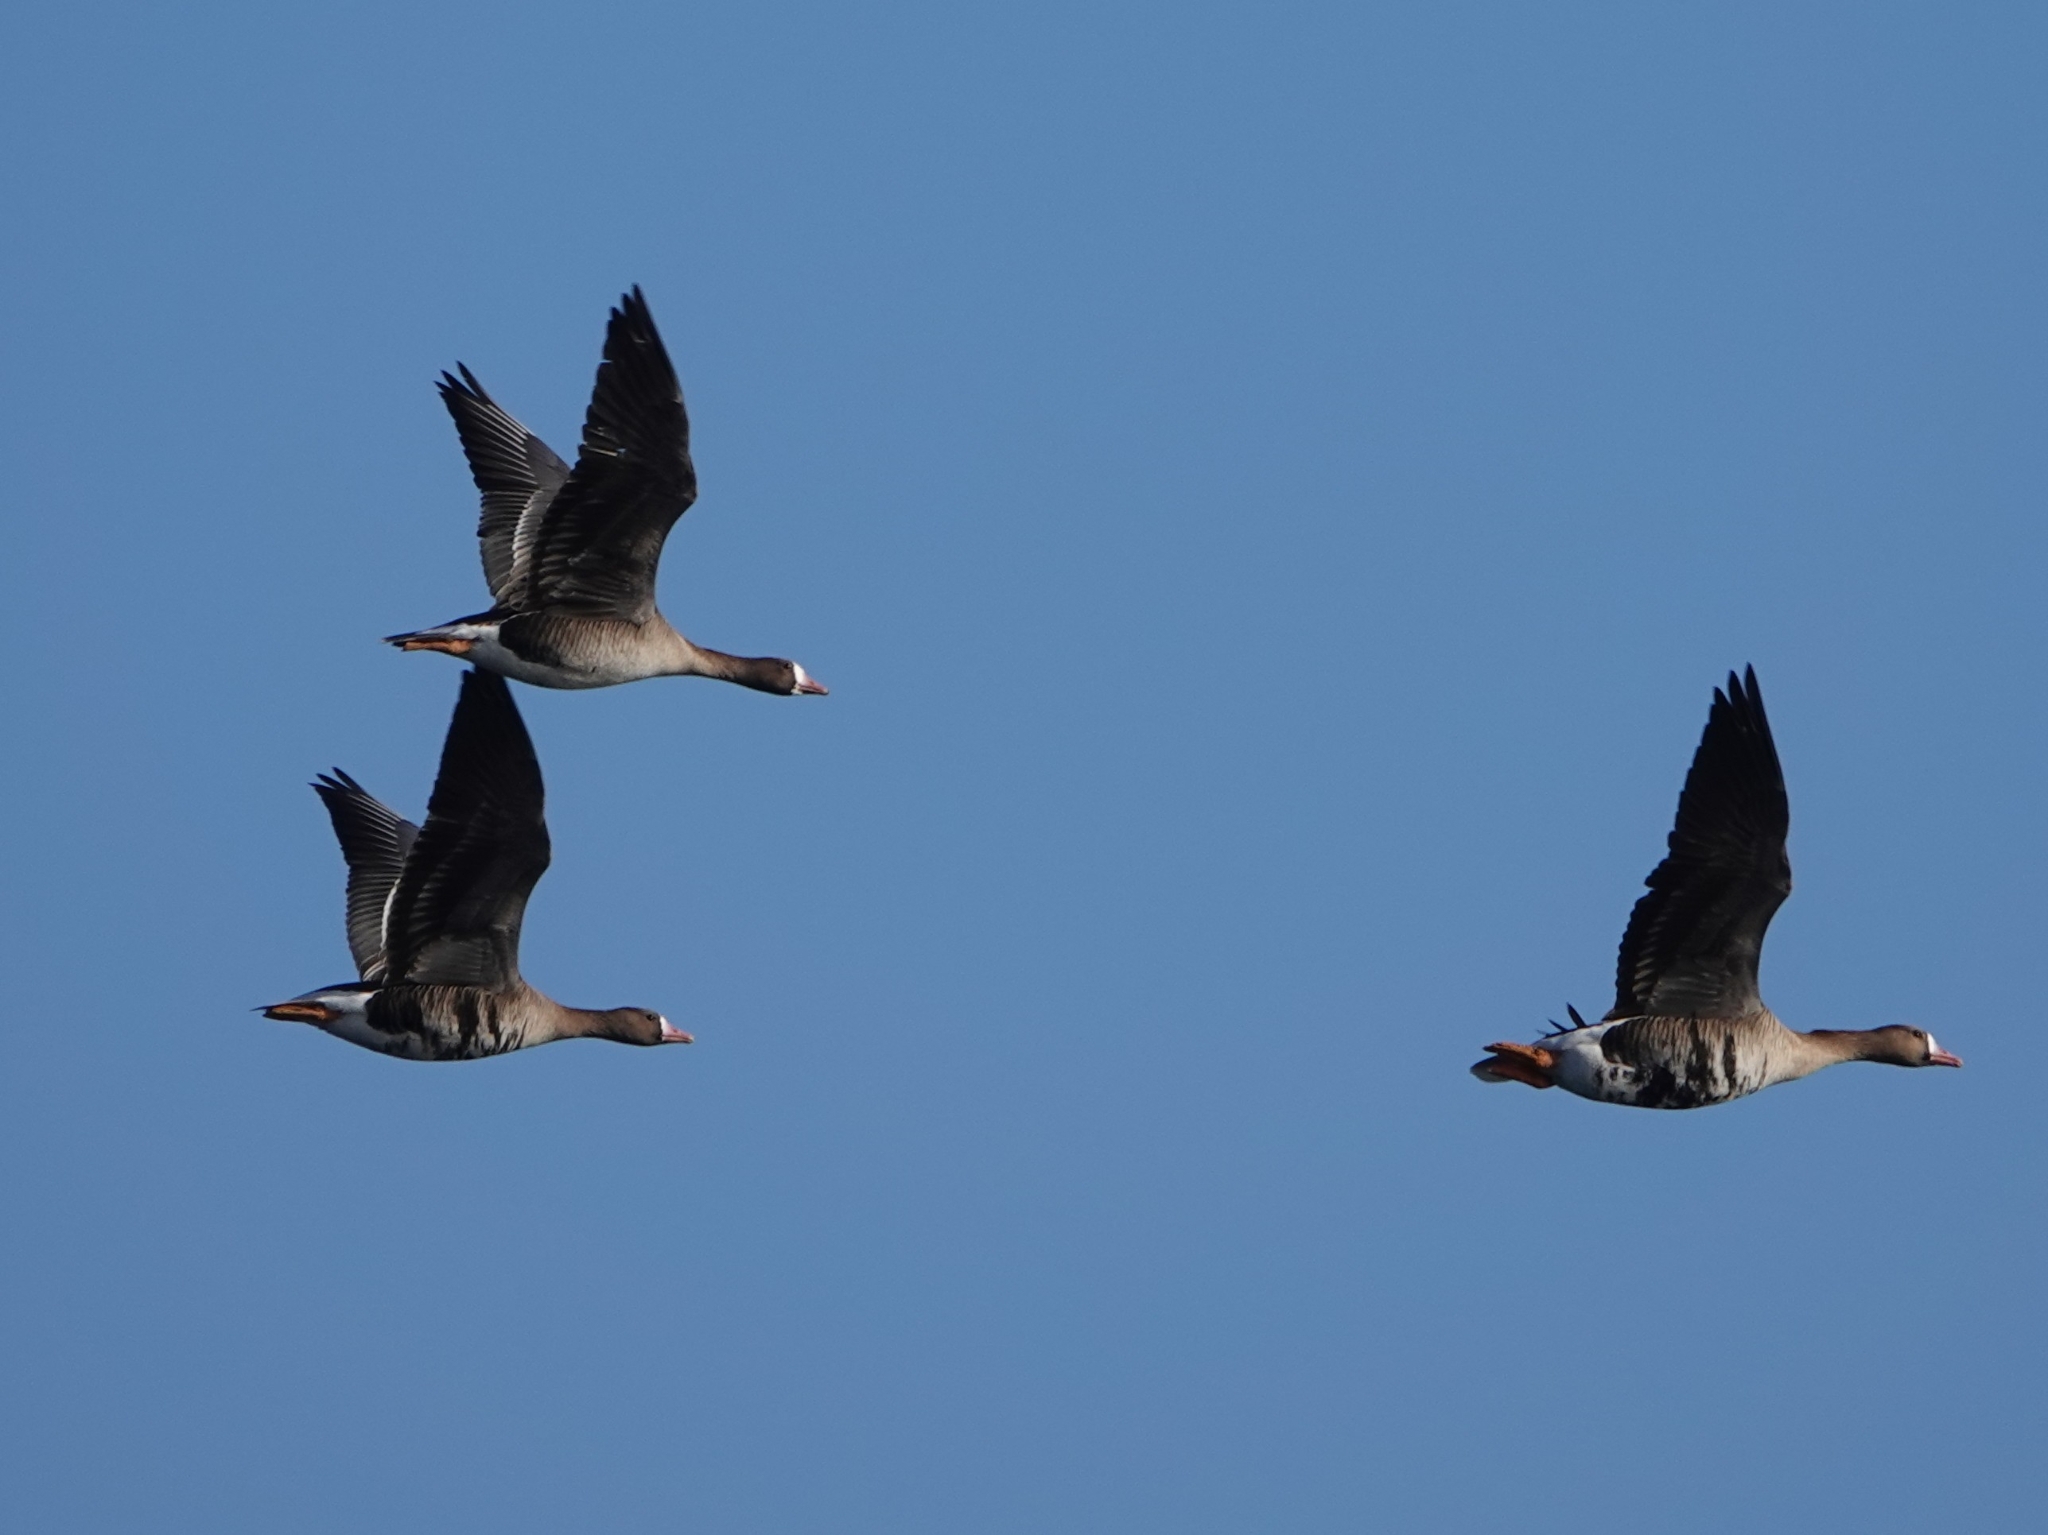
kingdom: Animalia
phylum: Chordata
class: Aves
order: Anseriformes
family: Anatidae
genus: Anser
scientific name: Anser albifrons
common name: Greater white-fronted goose
